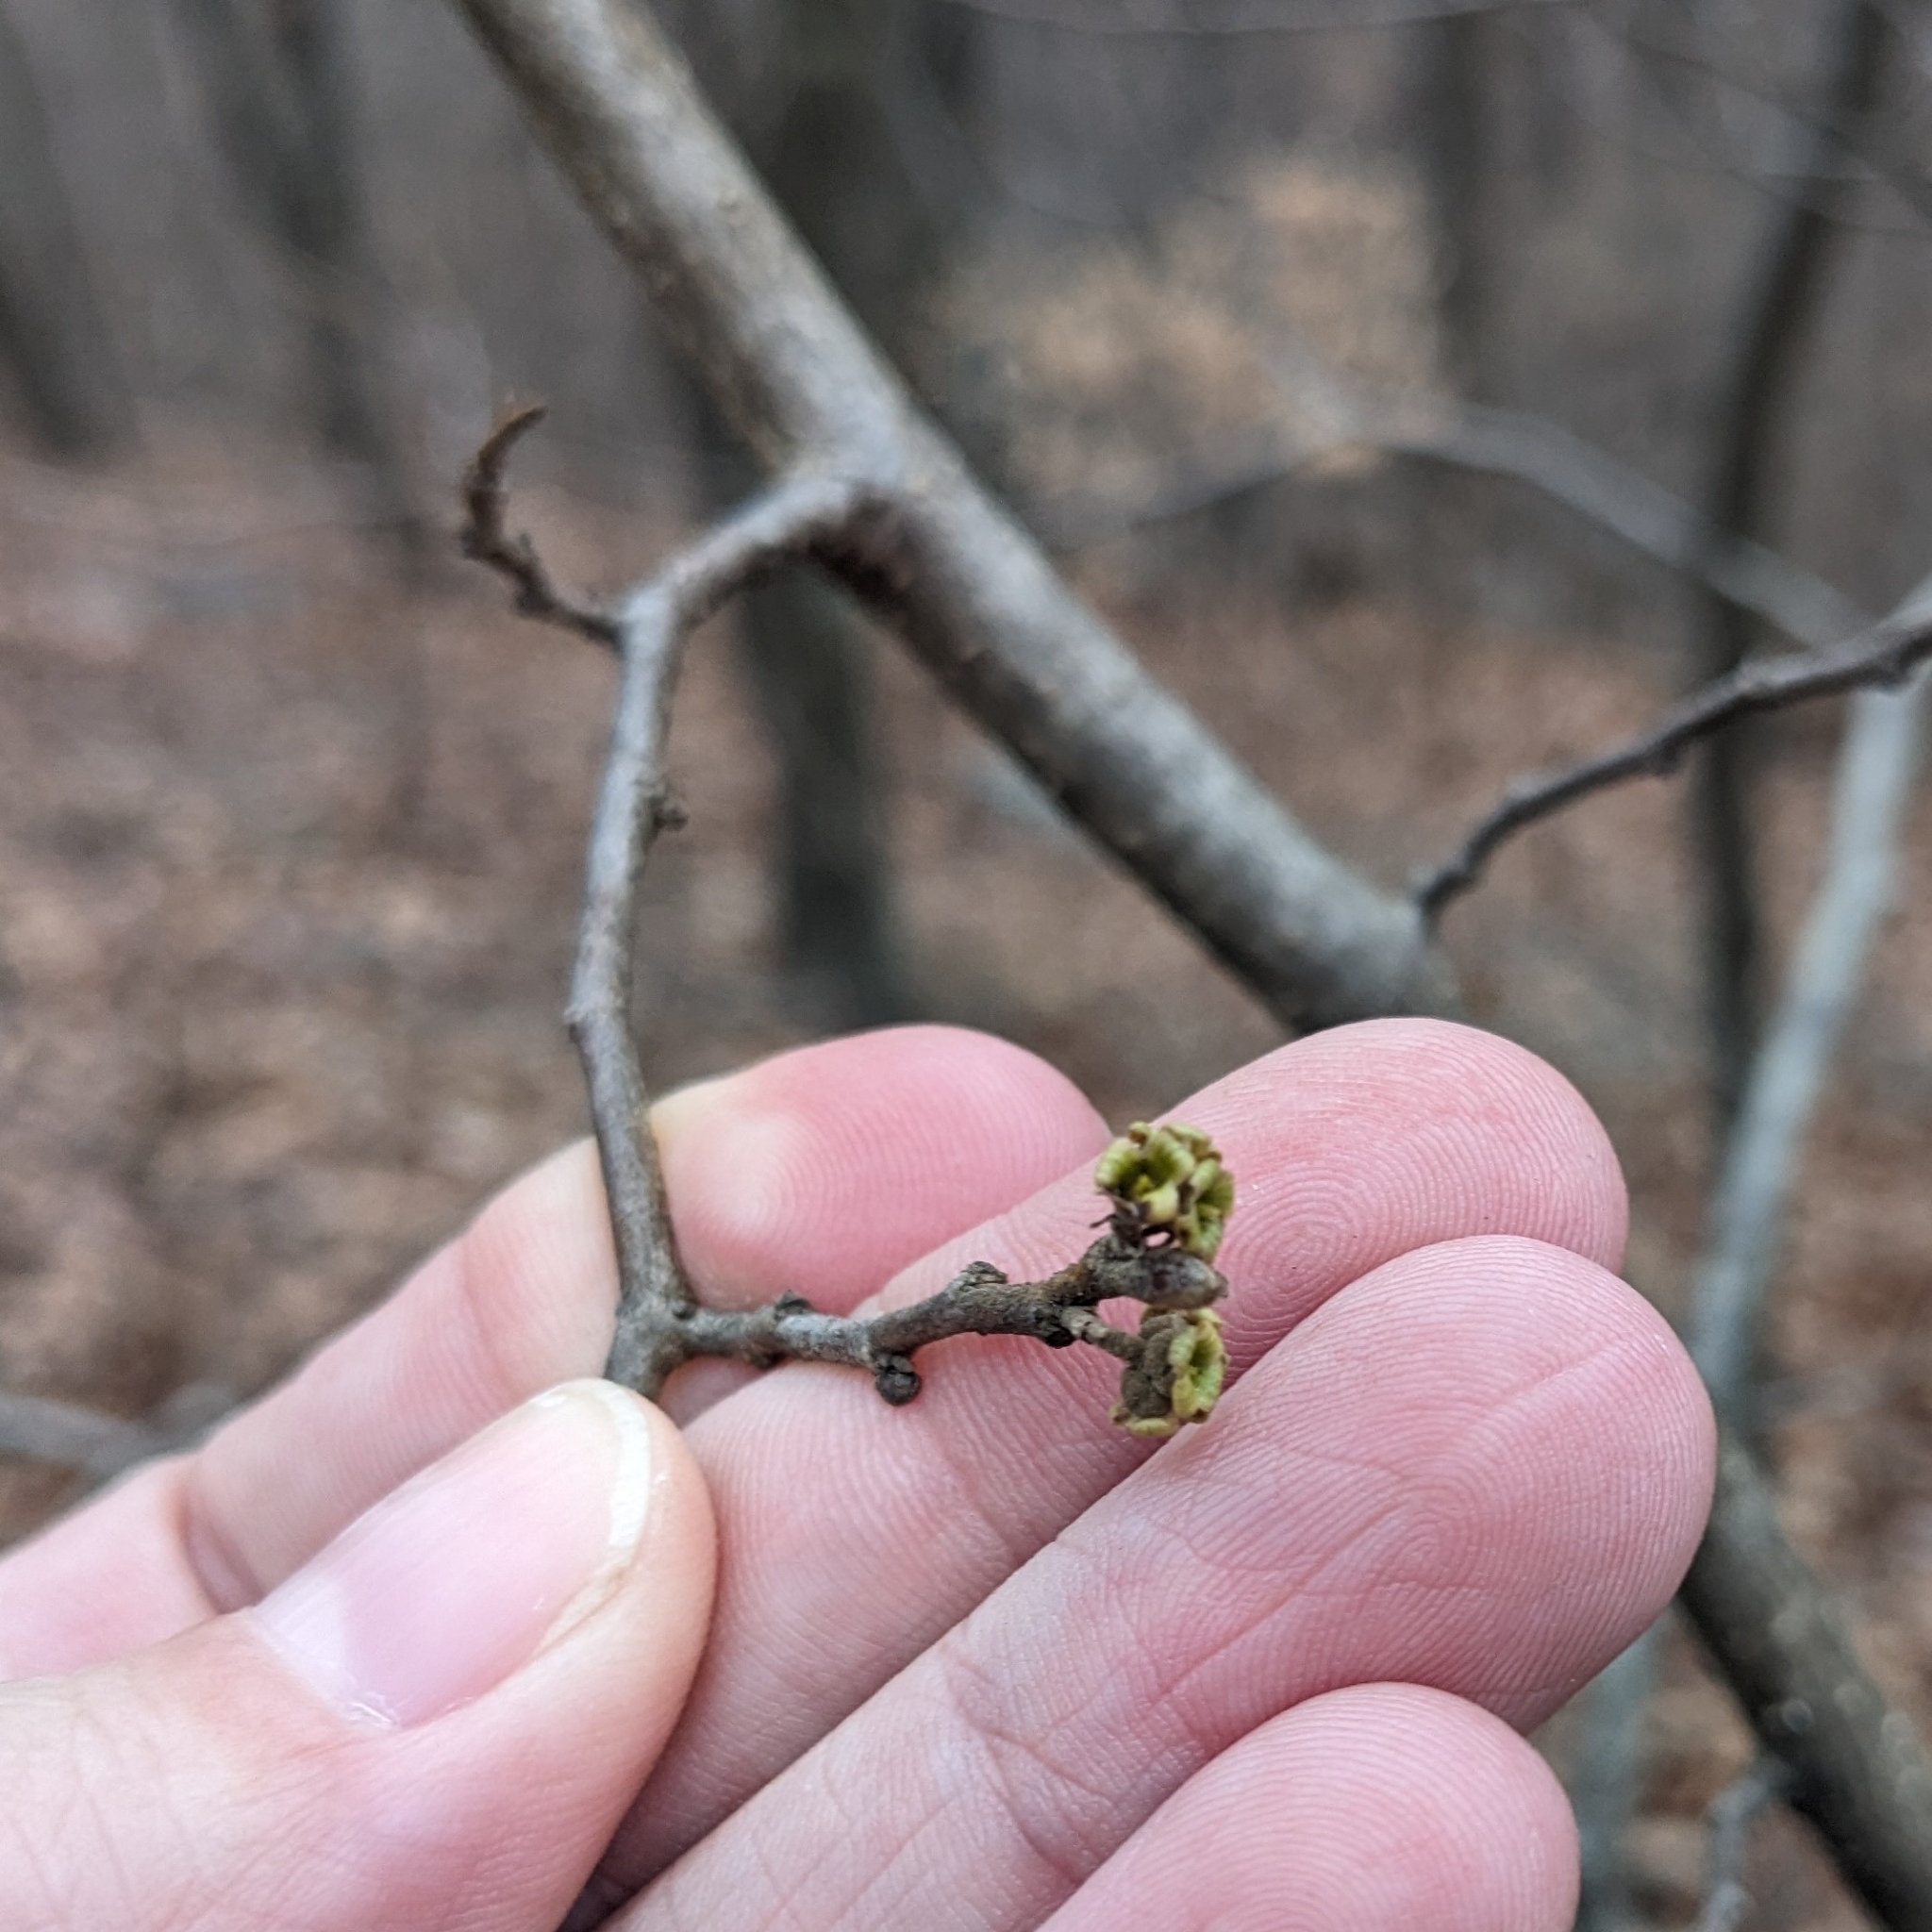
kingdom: Plantae
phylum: Tracheophyta
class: Magnoliopsida
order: Saxifragales
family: Hamamelidaceae
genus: Hamamelis
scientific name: Hamamelis virginiana
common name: Witch-hazel
